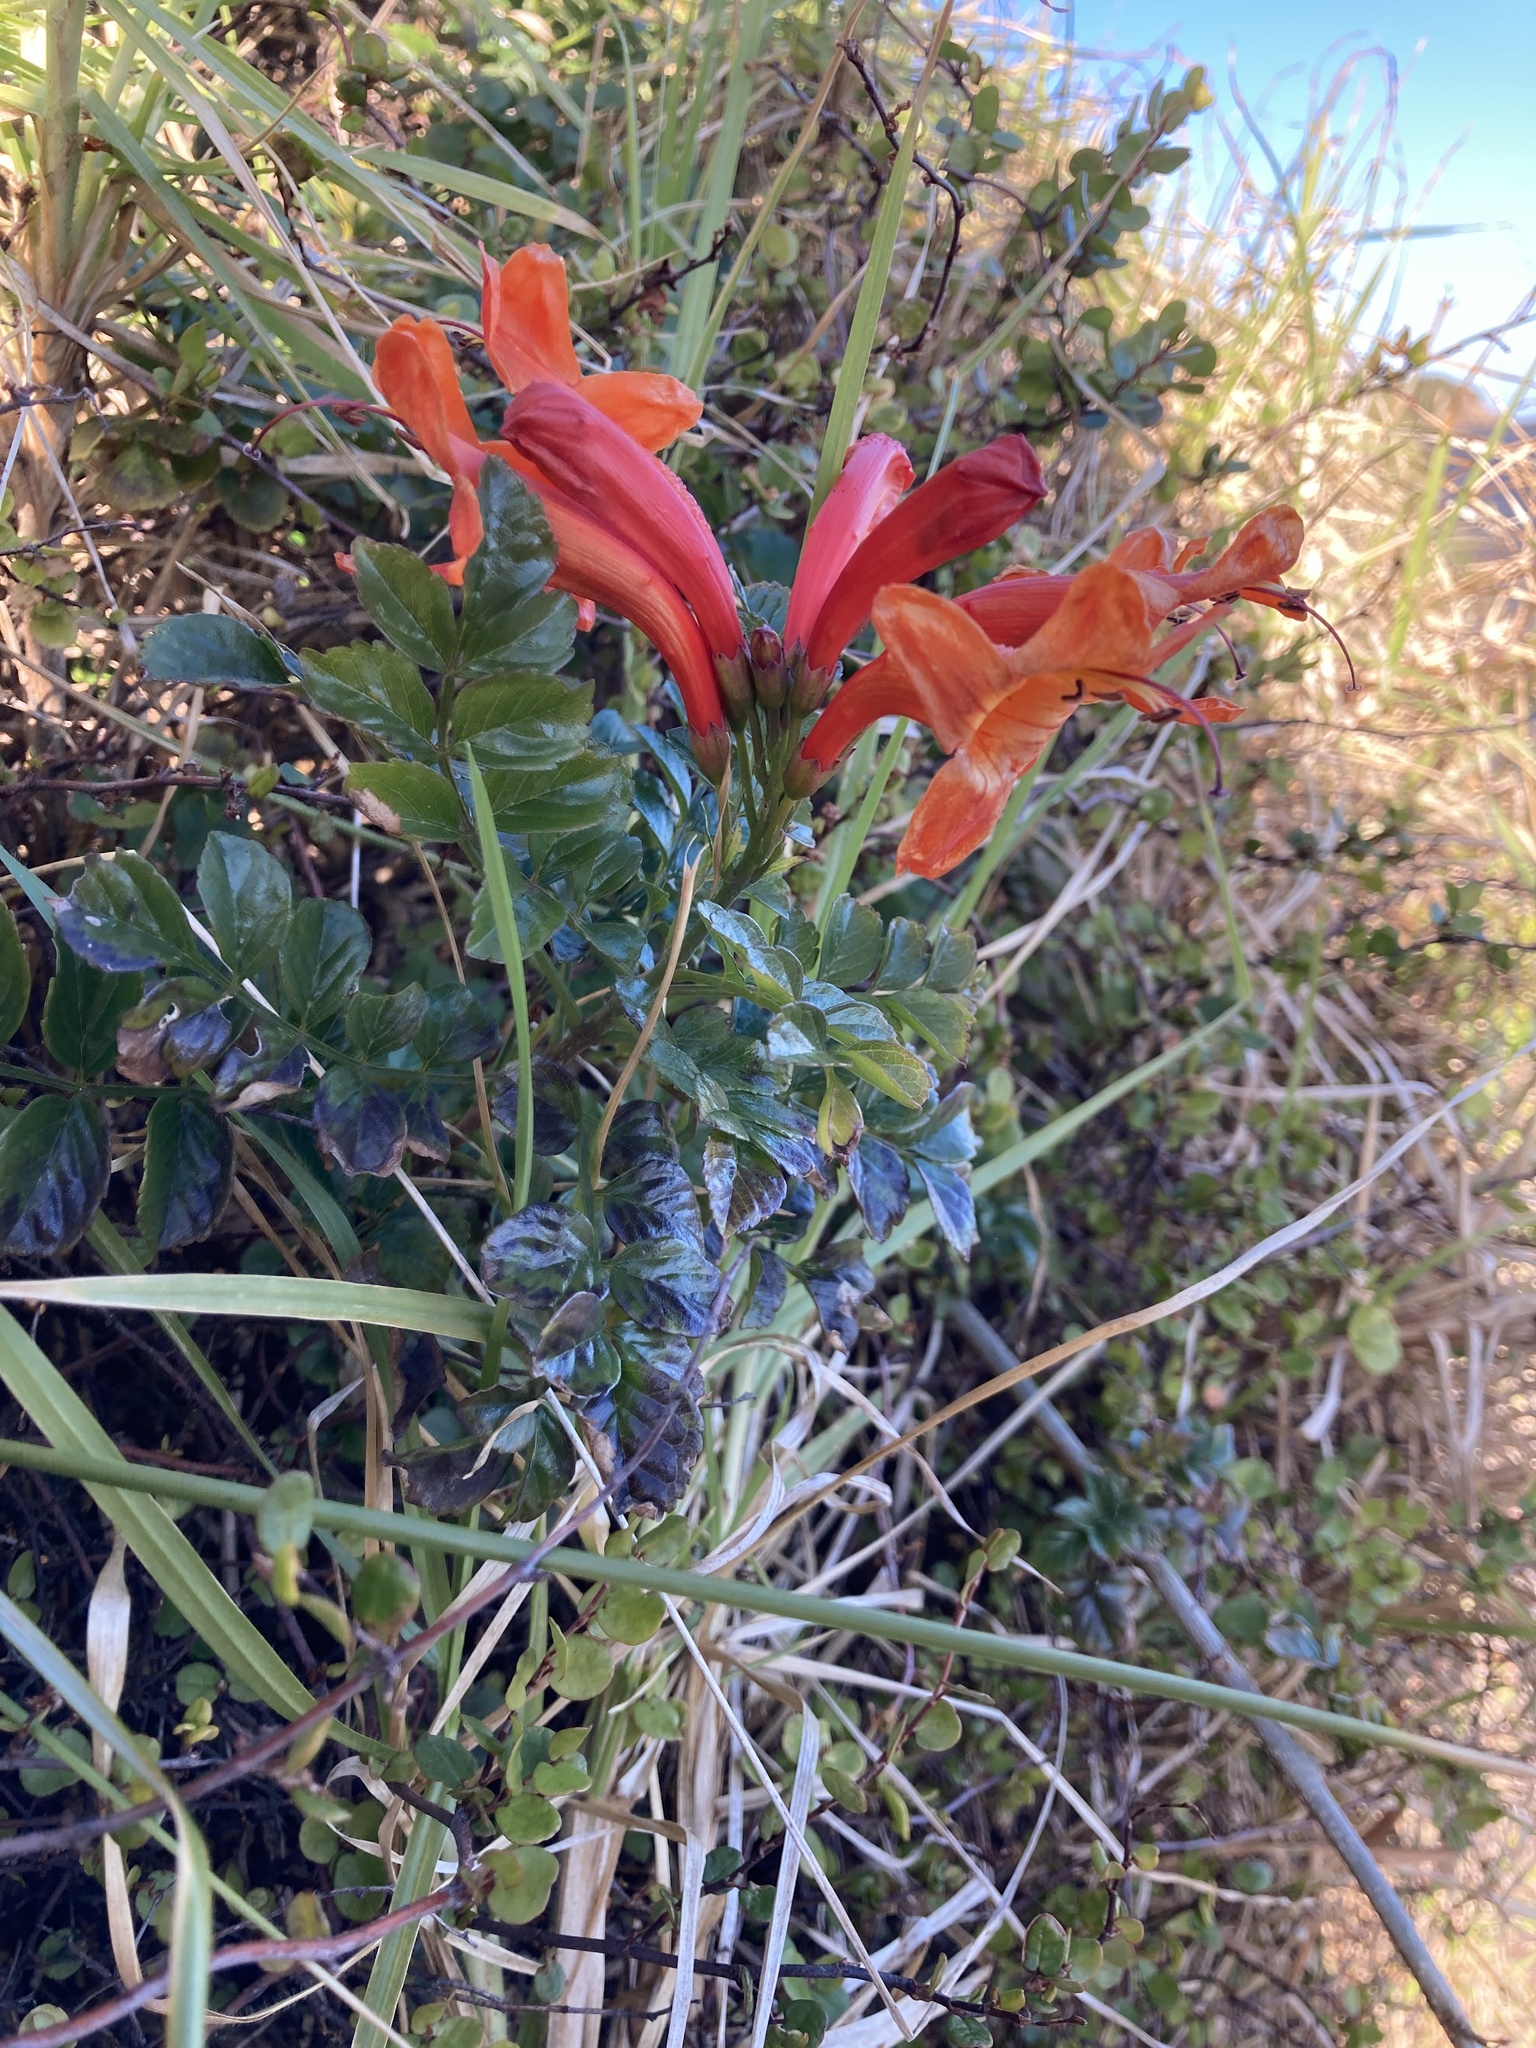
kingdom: Plantae
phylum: Tracheophyta
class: Magnoliopsida
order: Lamiales
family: Bignoniaceae
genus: Tecomaria
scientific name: Tecomaria capensis
